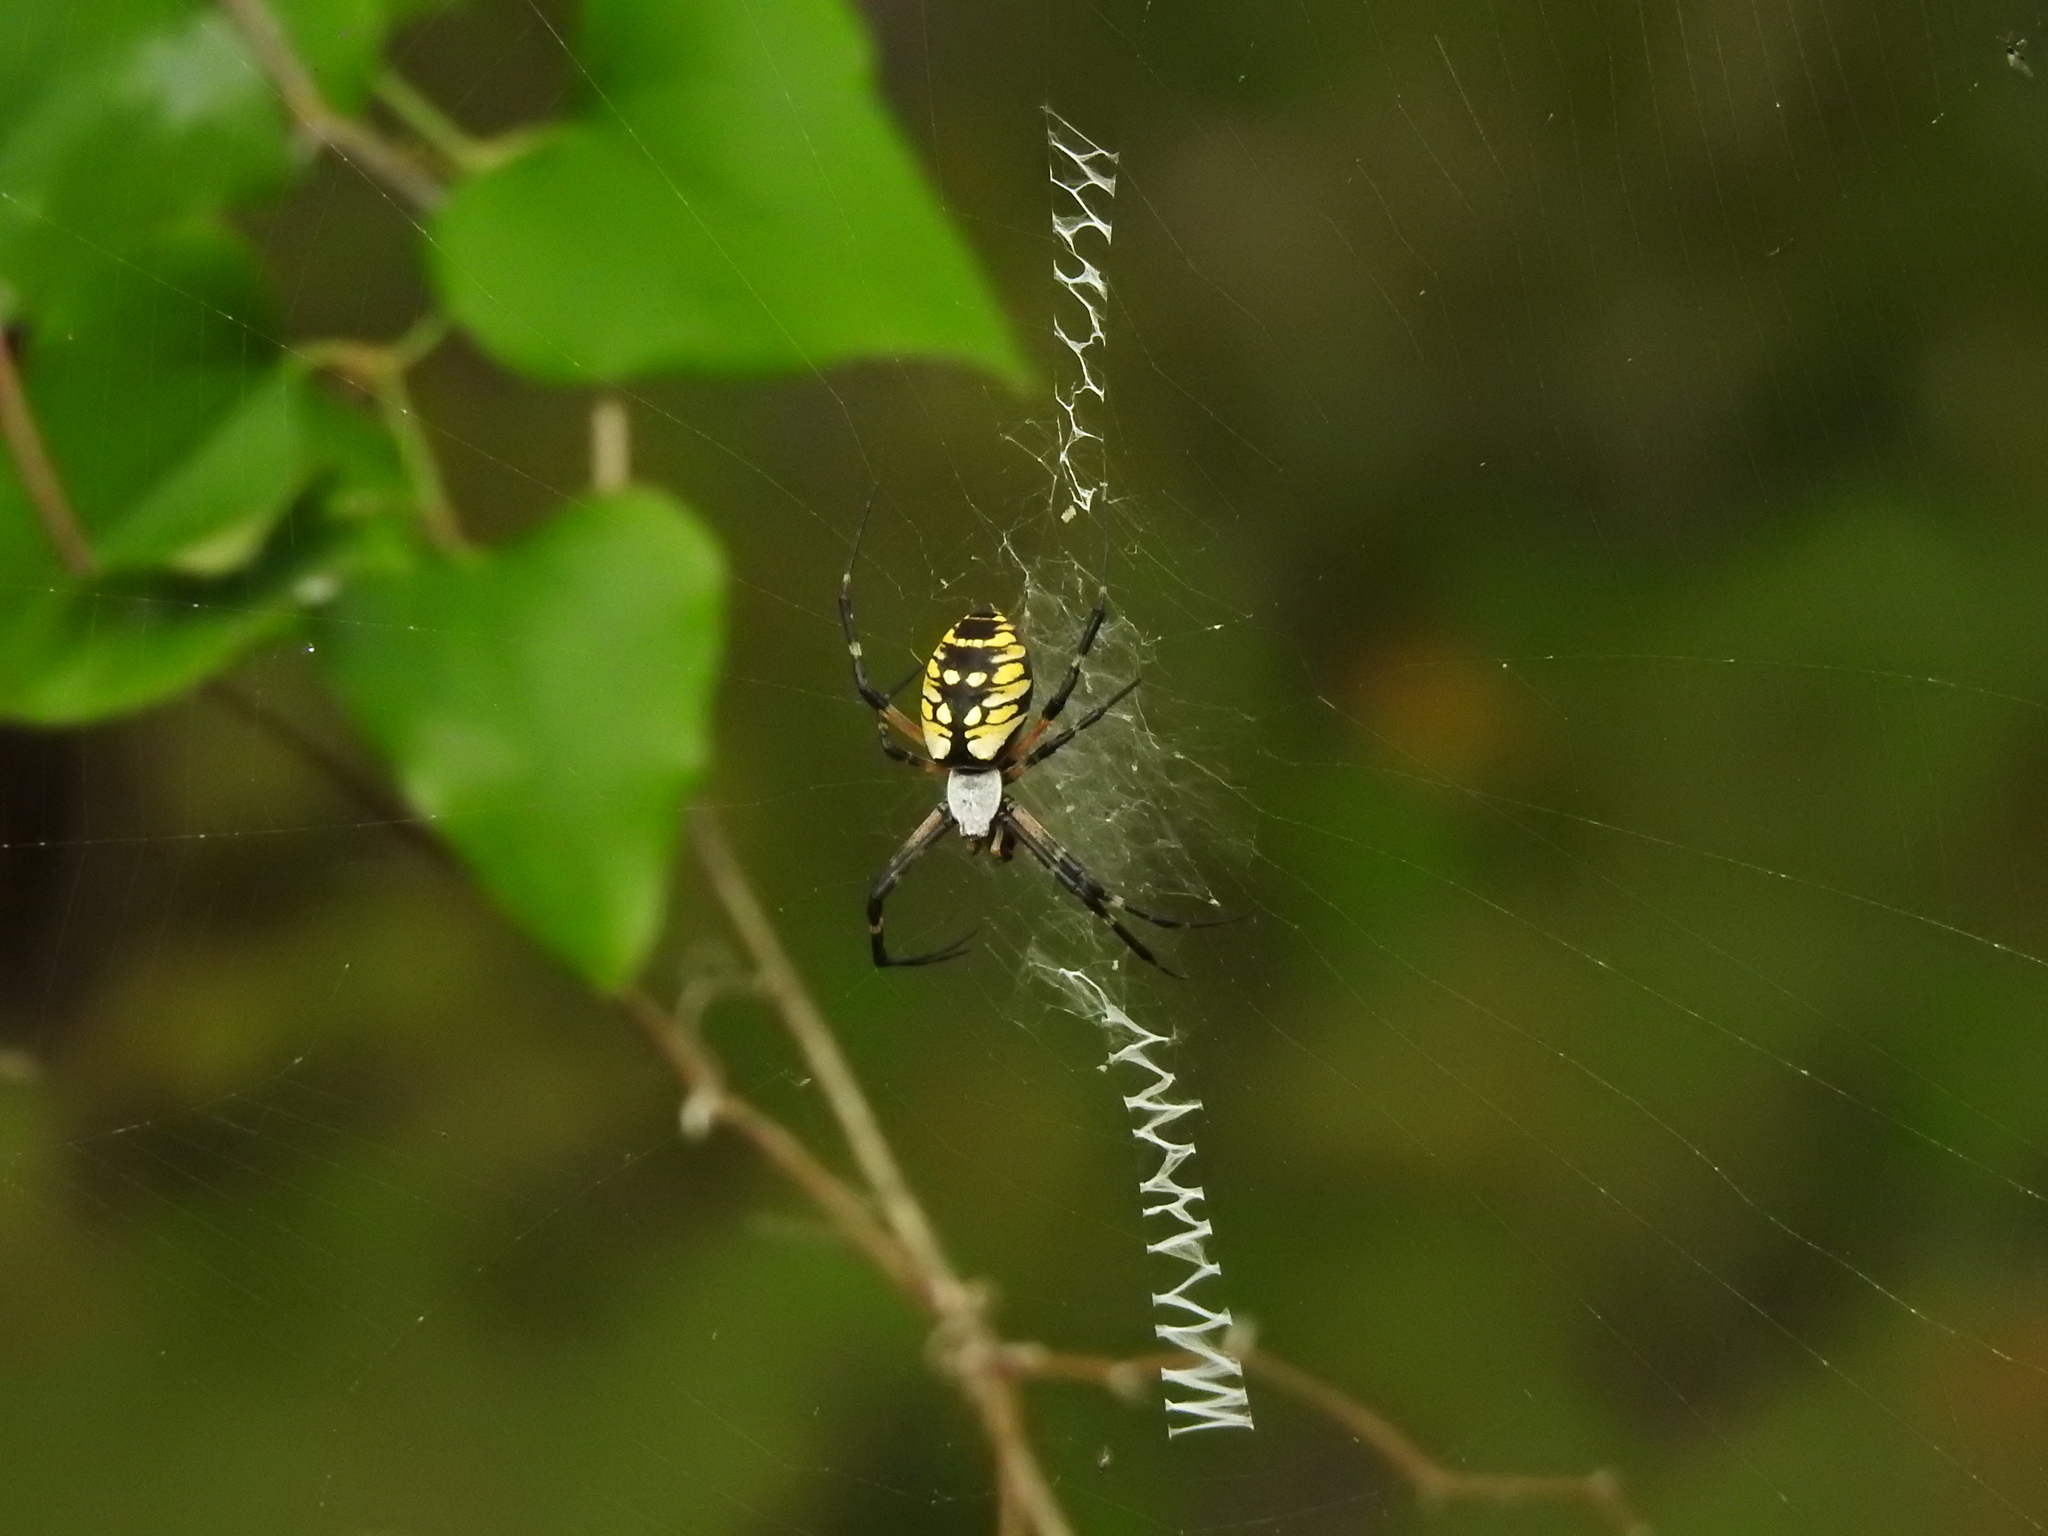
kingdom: Animalia
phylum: Arthropoda
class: Arachnida
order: Araneae
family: Araneidae
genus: Argiope
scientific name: Argiope aurantia
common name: Orb weavers
